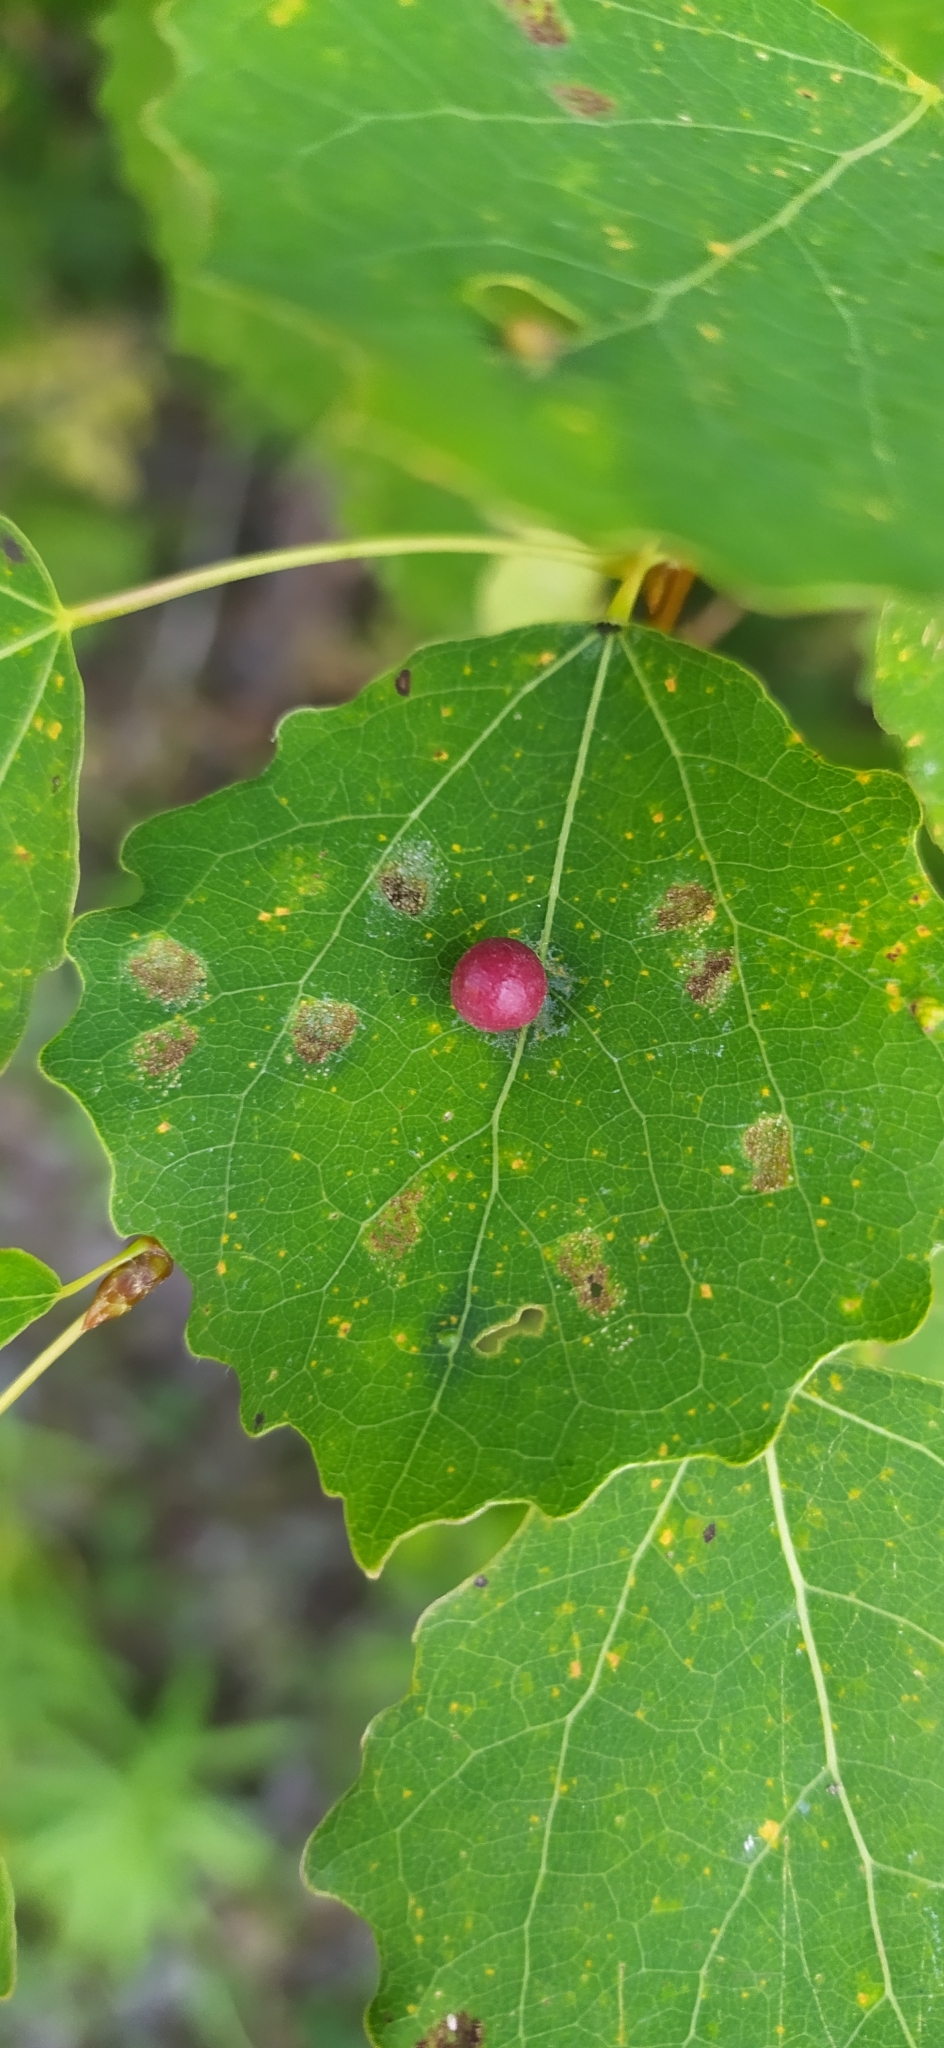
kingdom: Animalia
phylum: Arthropoda
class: Insecta
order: Diptera
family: Cecidomyiidae
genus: Harmandiola
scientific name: Harmandiola tremulae
